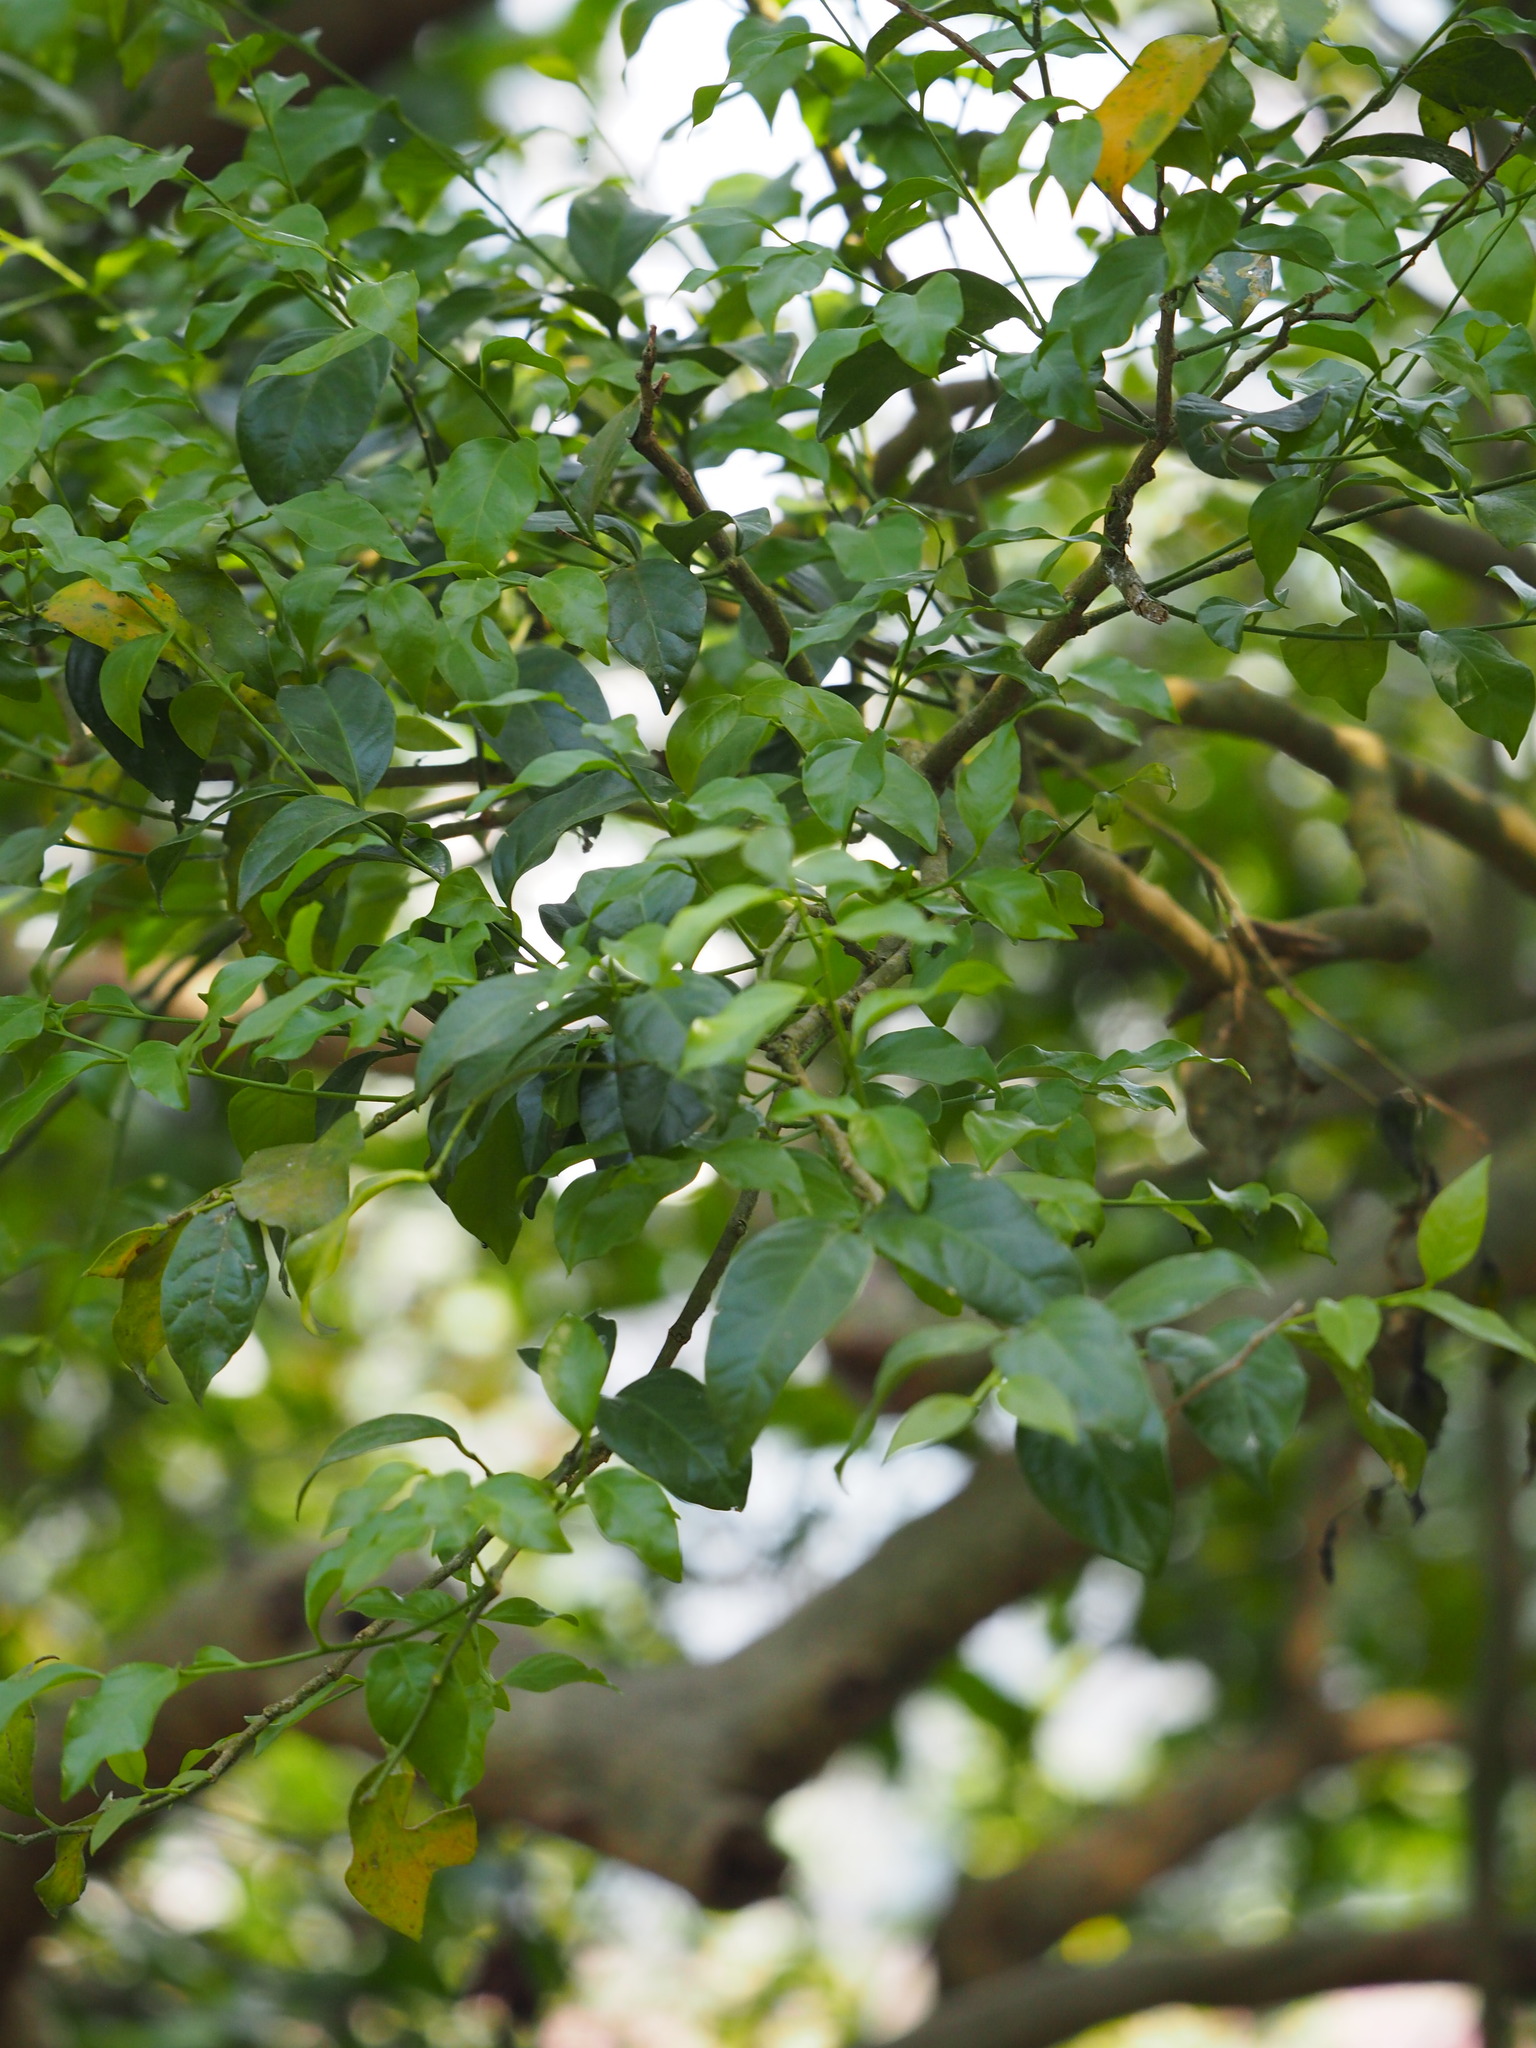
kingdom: Plantae
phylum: Tracheophyta
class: Magnoliopsida
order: Santalales
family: Opiliaceae
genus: Champereia
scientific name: Champereia manillana
